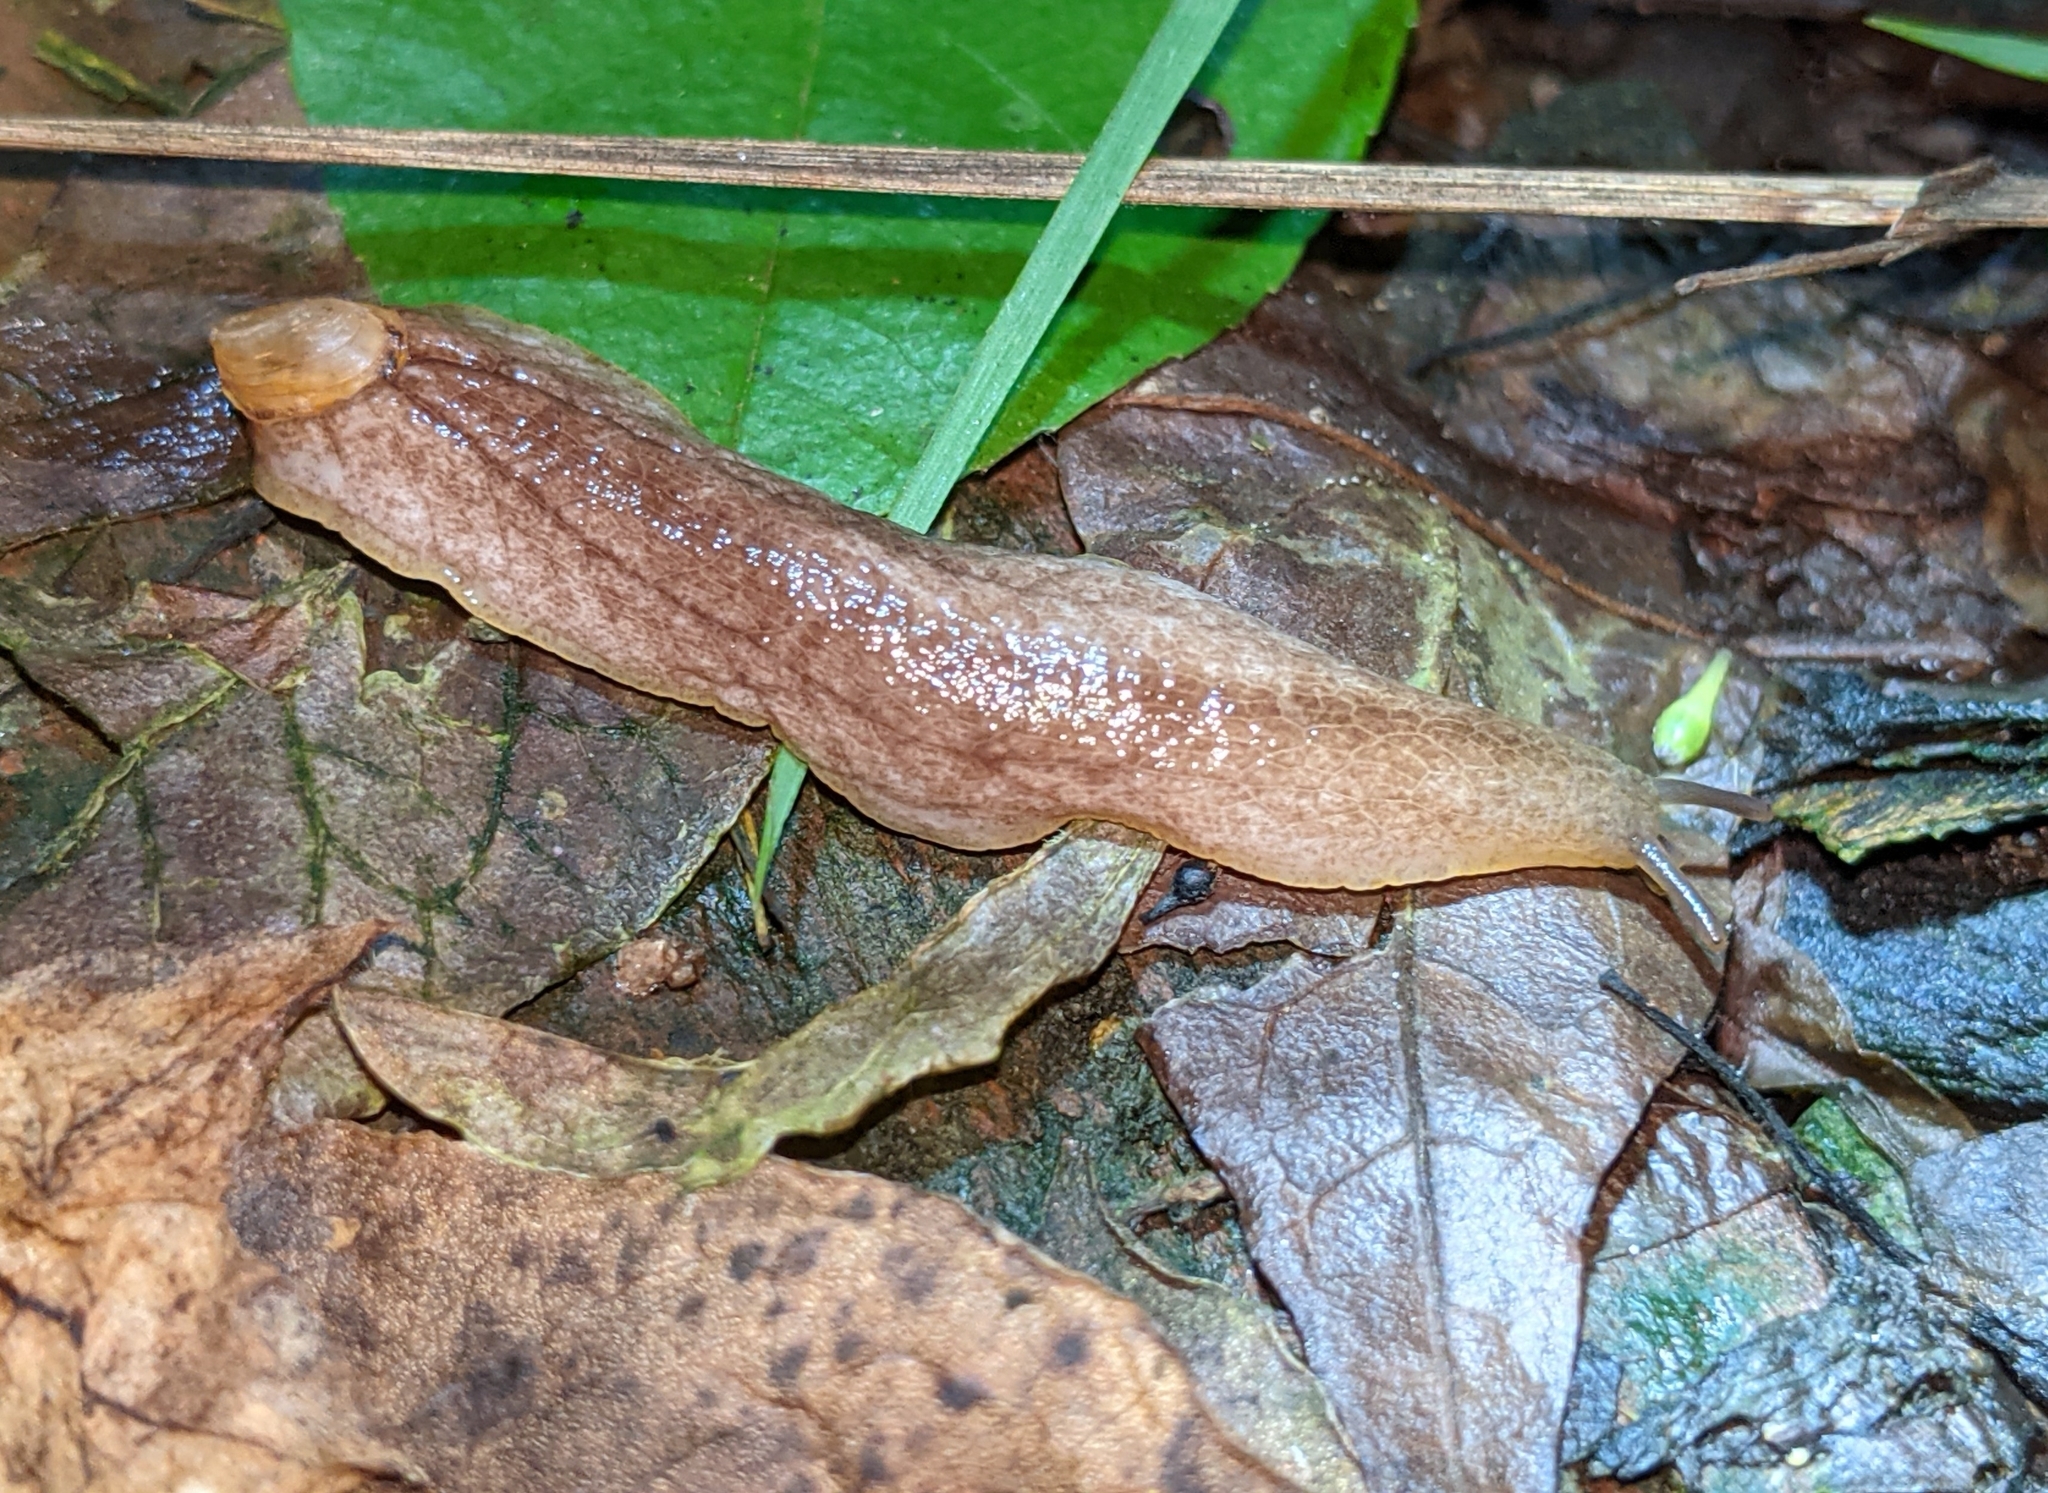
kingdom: Animalia
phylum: Mollusca
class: Gastropoda
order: Stylommatophora
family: Testacellidae
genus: Testacella
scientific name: Testacella haliotidea
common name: Shelled slug
